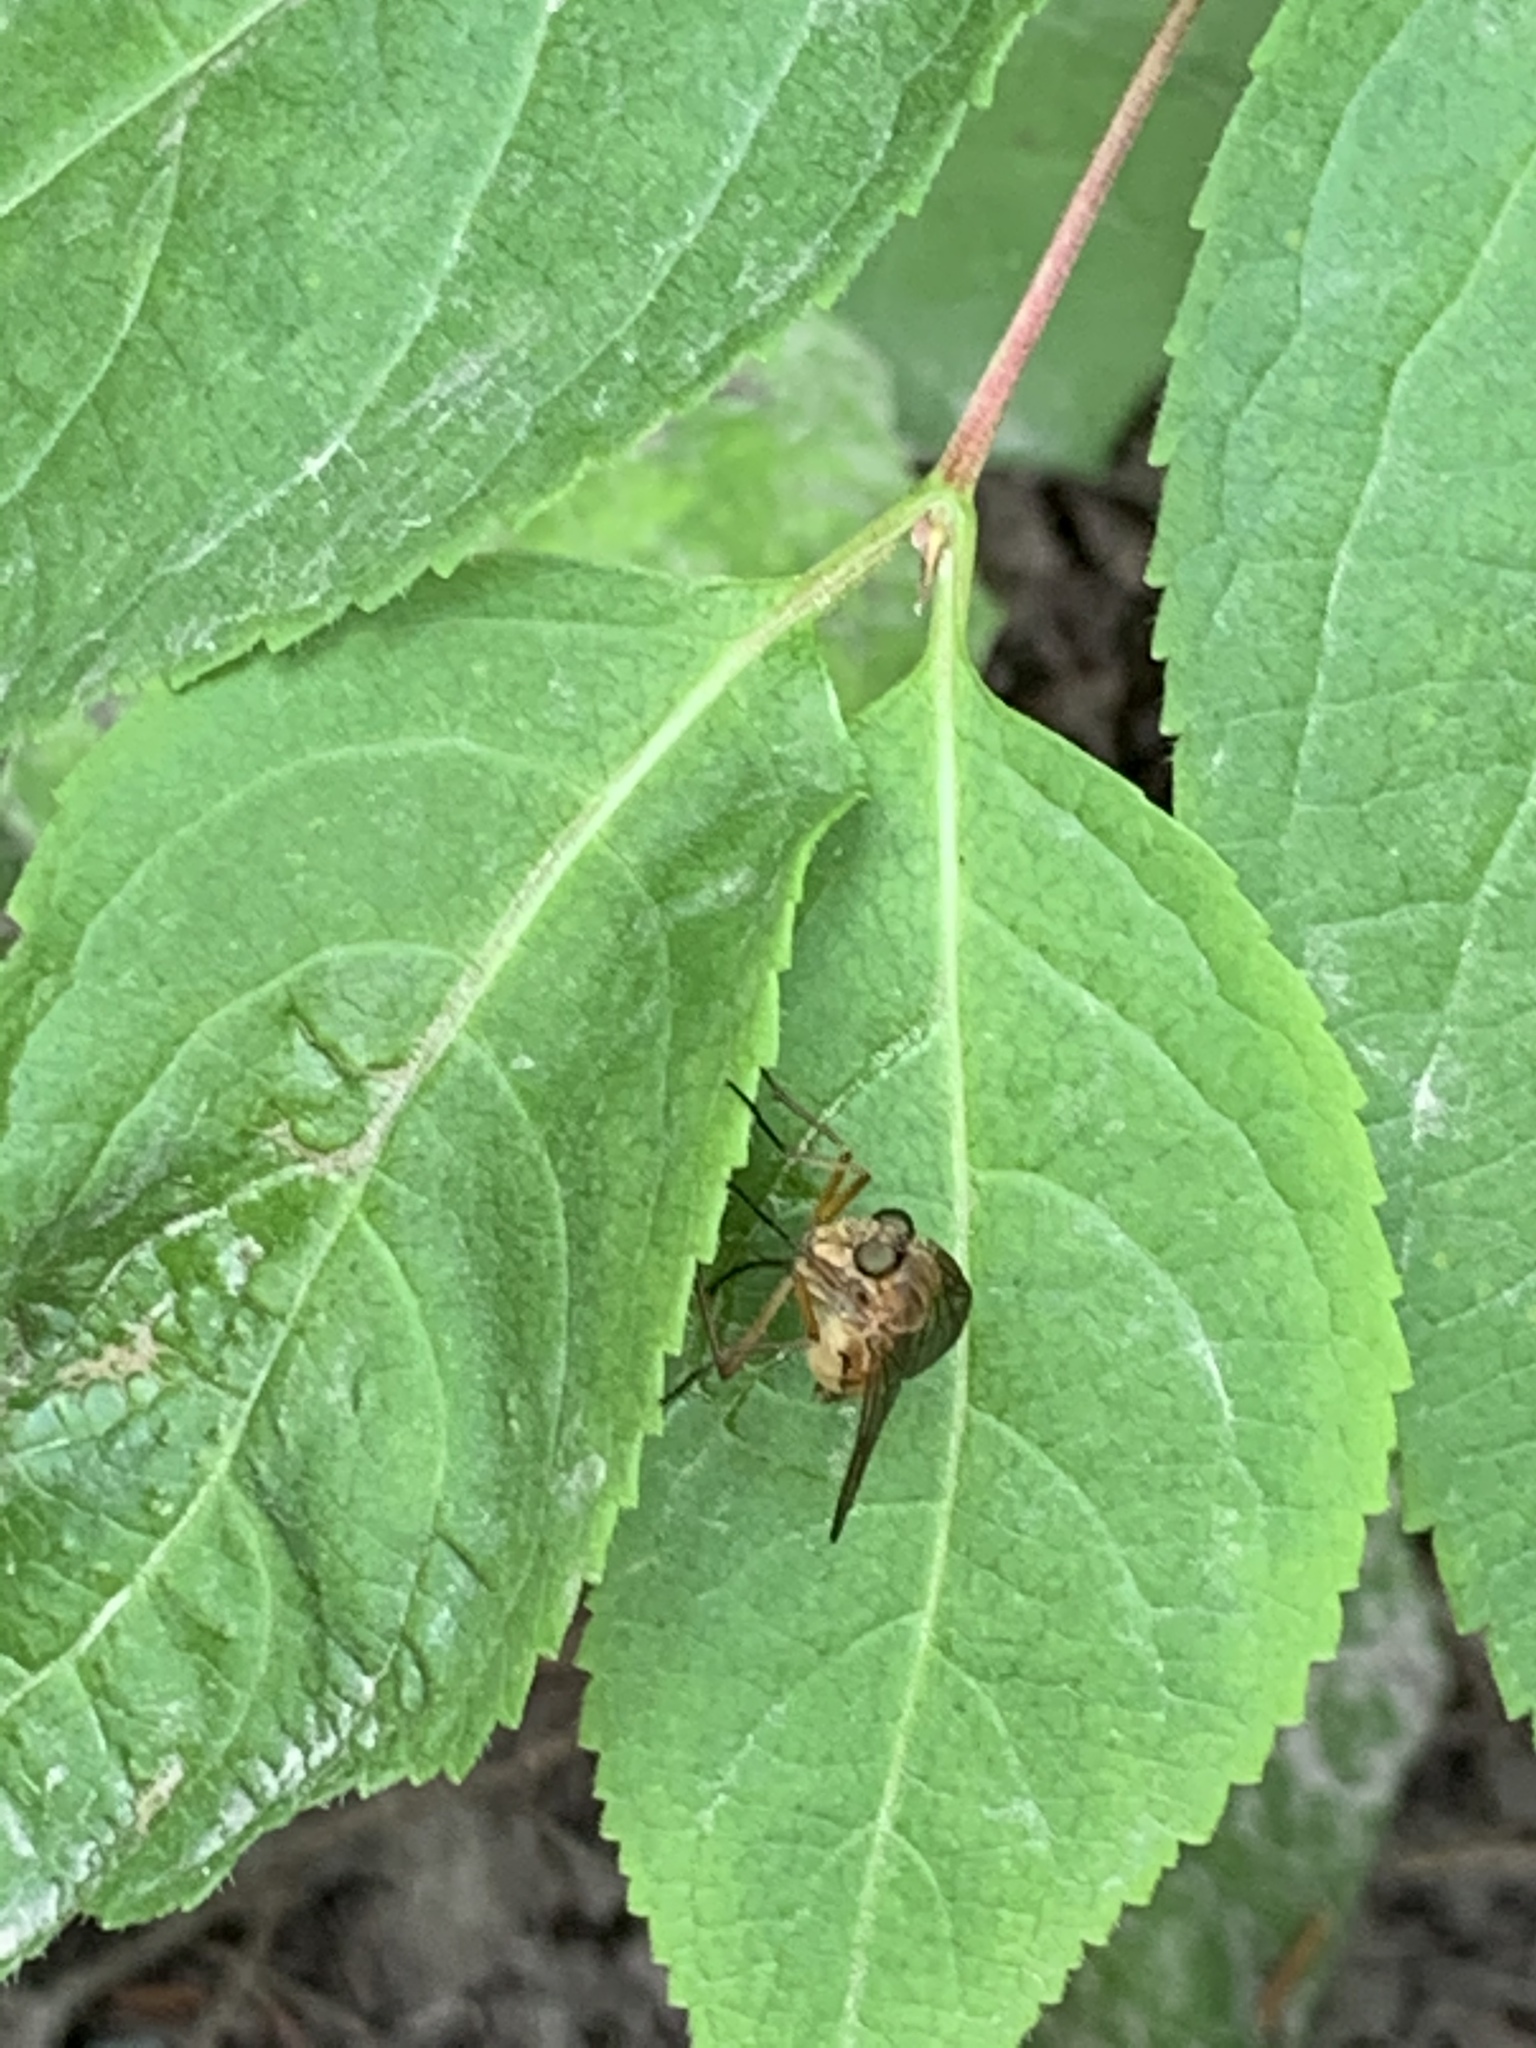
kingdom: Animalia
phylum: Arthropoda
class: Insecta
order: Diptera
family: Rhagionidae
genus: Rhagio
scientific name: Rhagio tringaria
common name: Marsh snipefly
